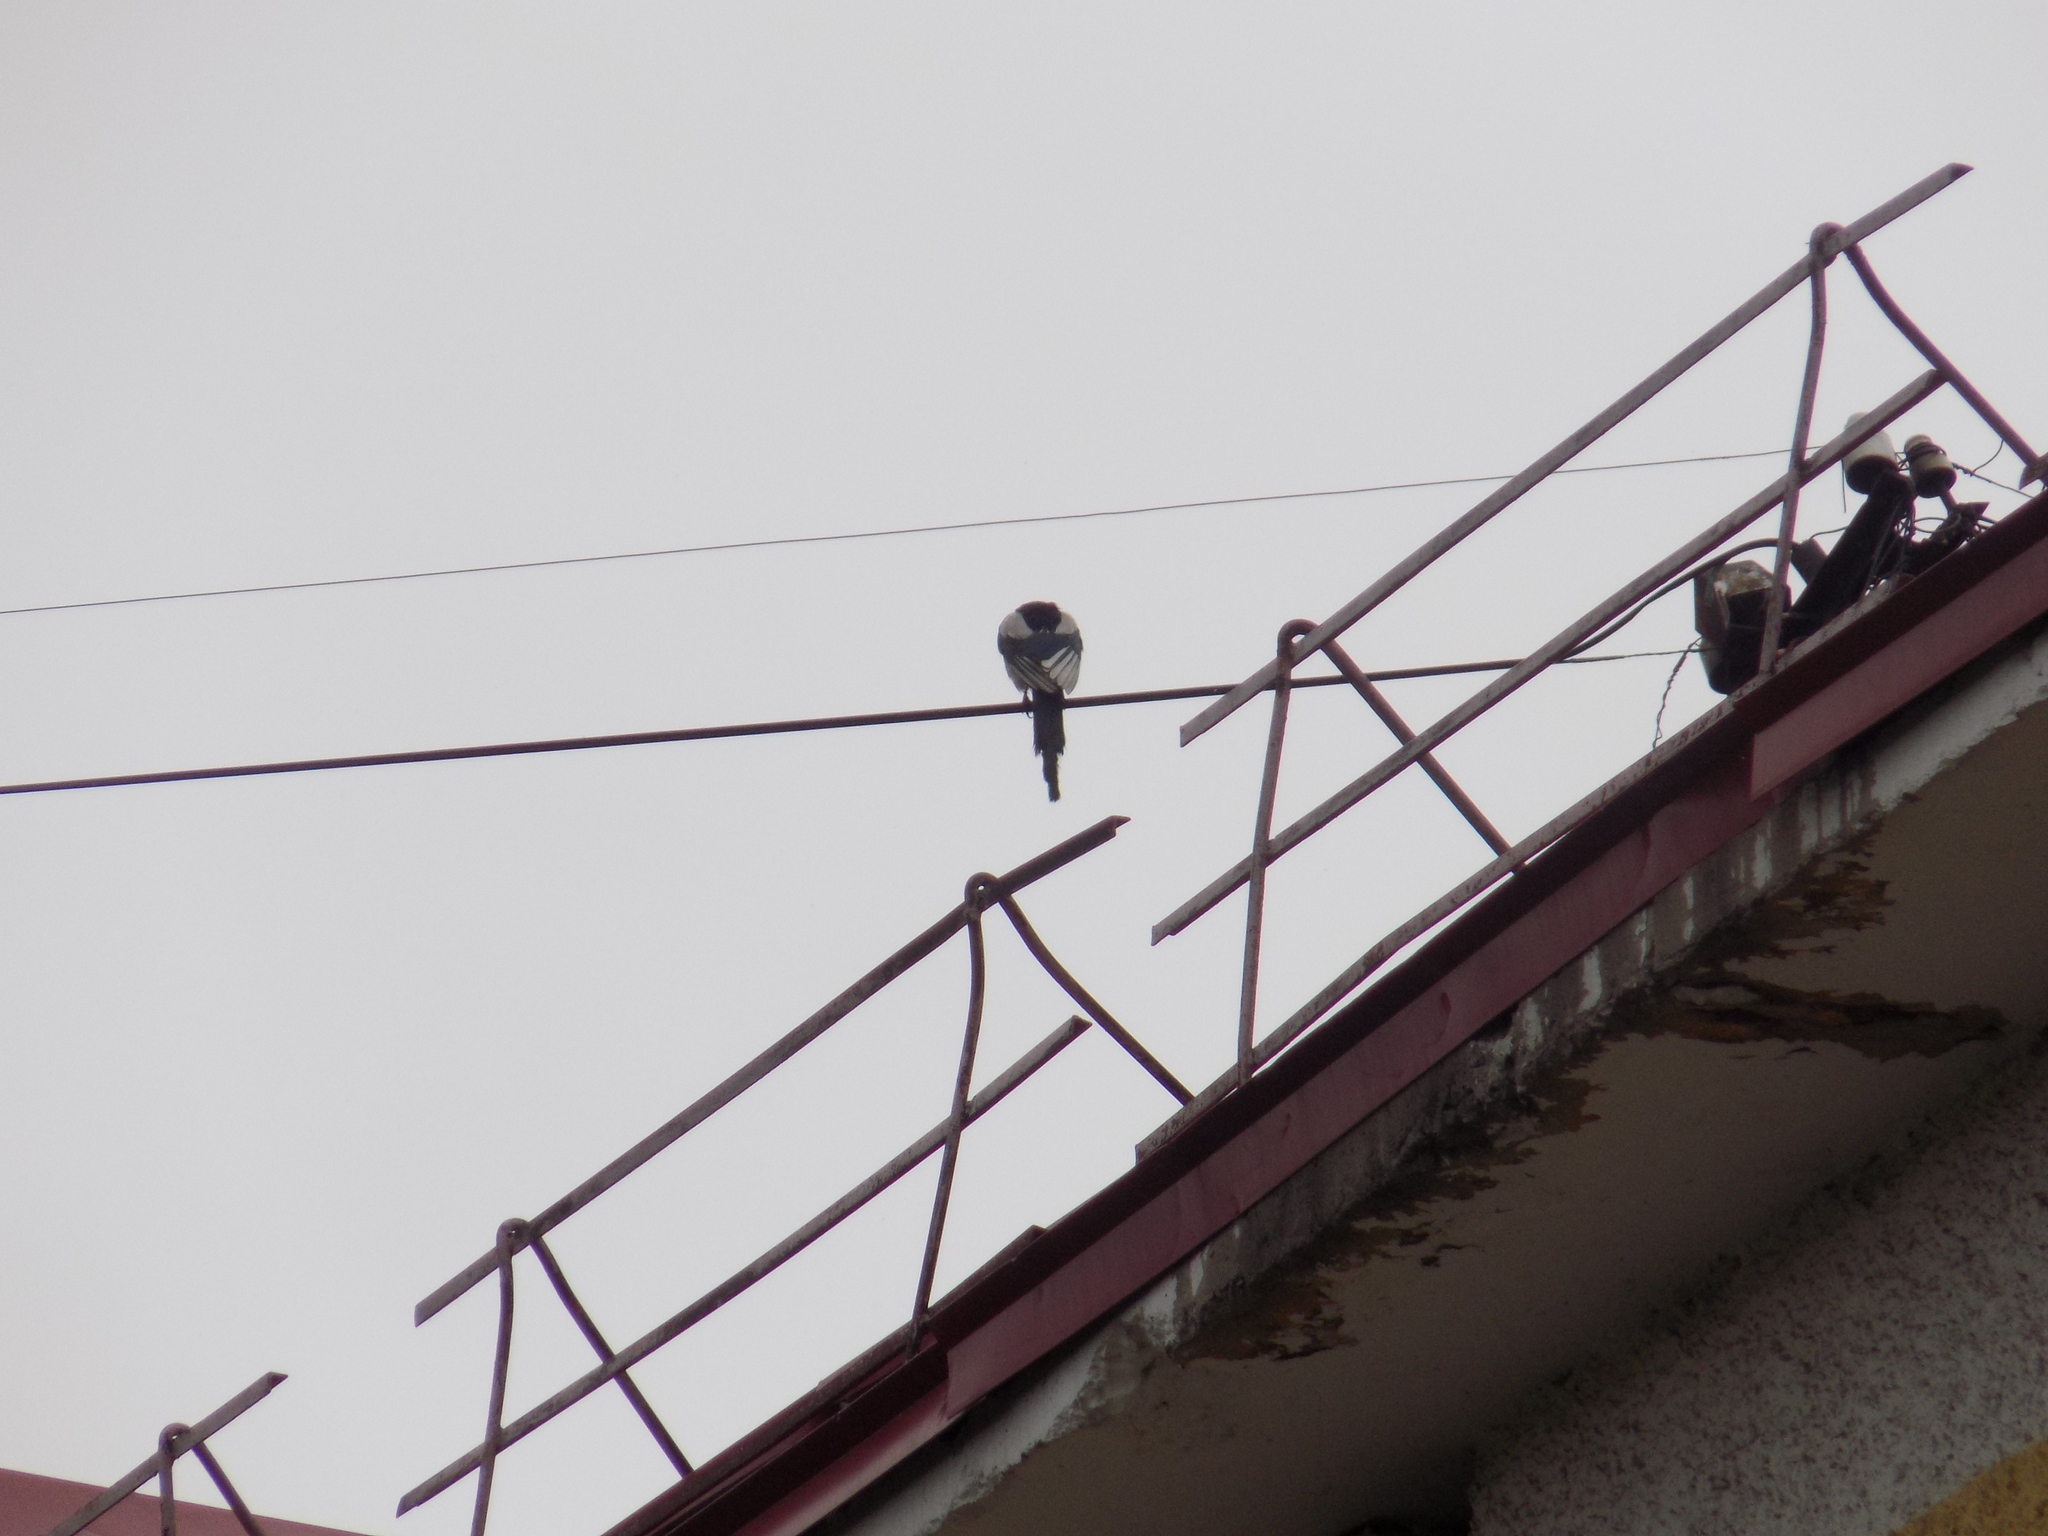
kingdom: Animalia
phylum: Chordata
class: Aves
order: Passeriformes
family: Corvidae
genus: Pica
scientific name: Pica pica
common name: Eurasian magpie
